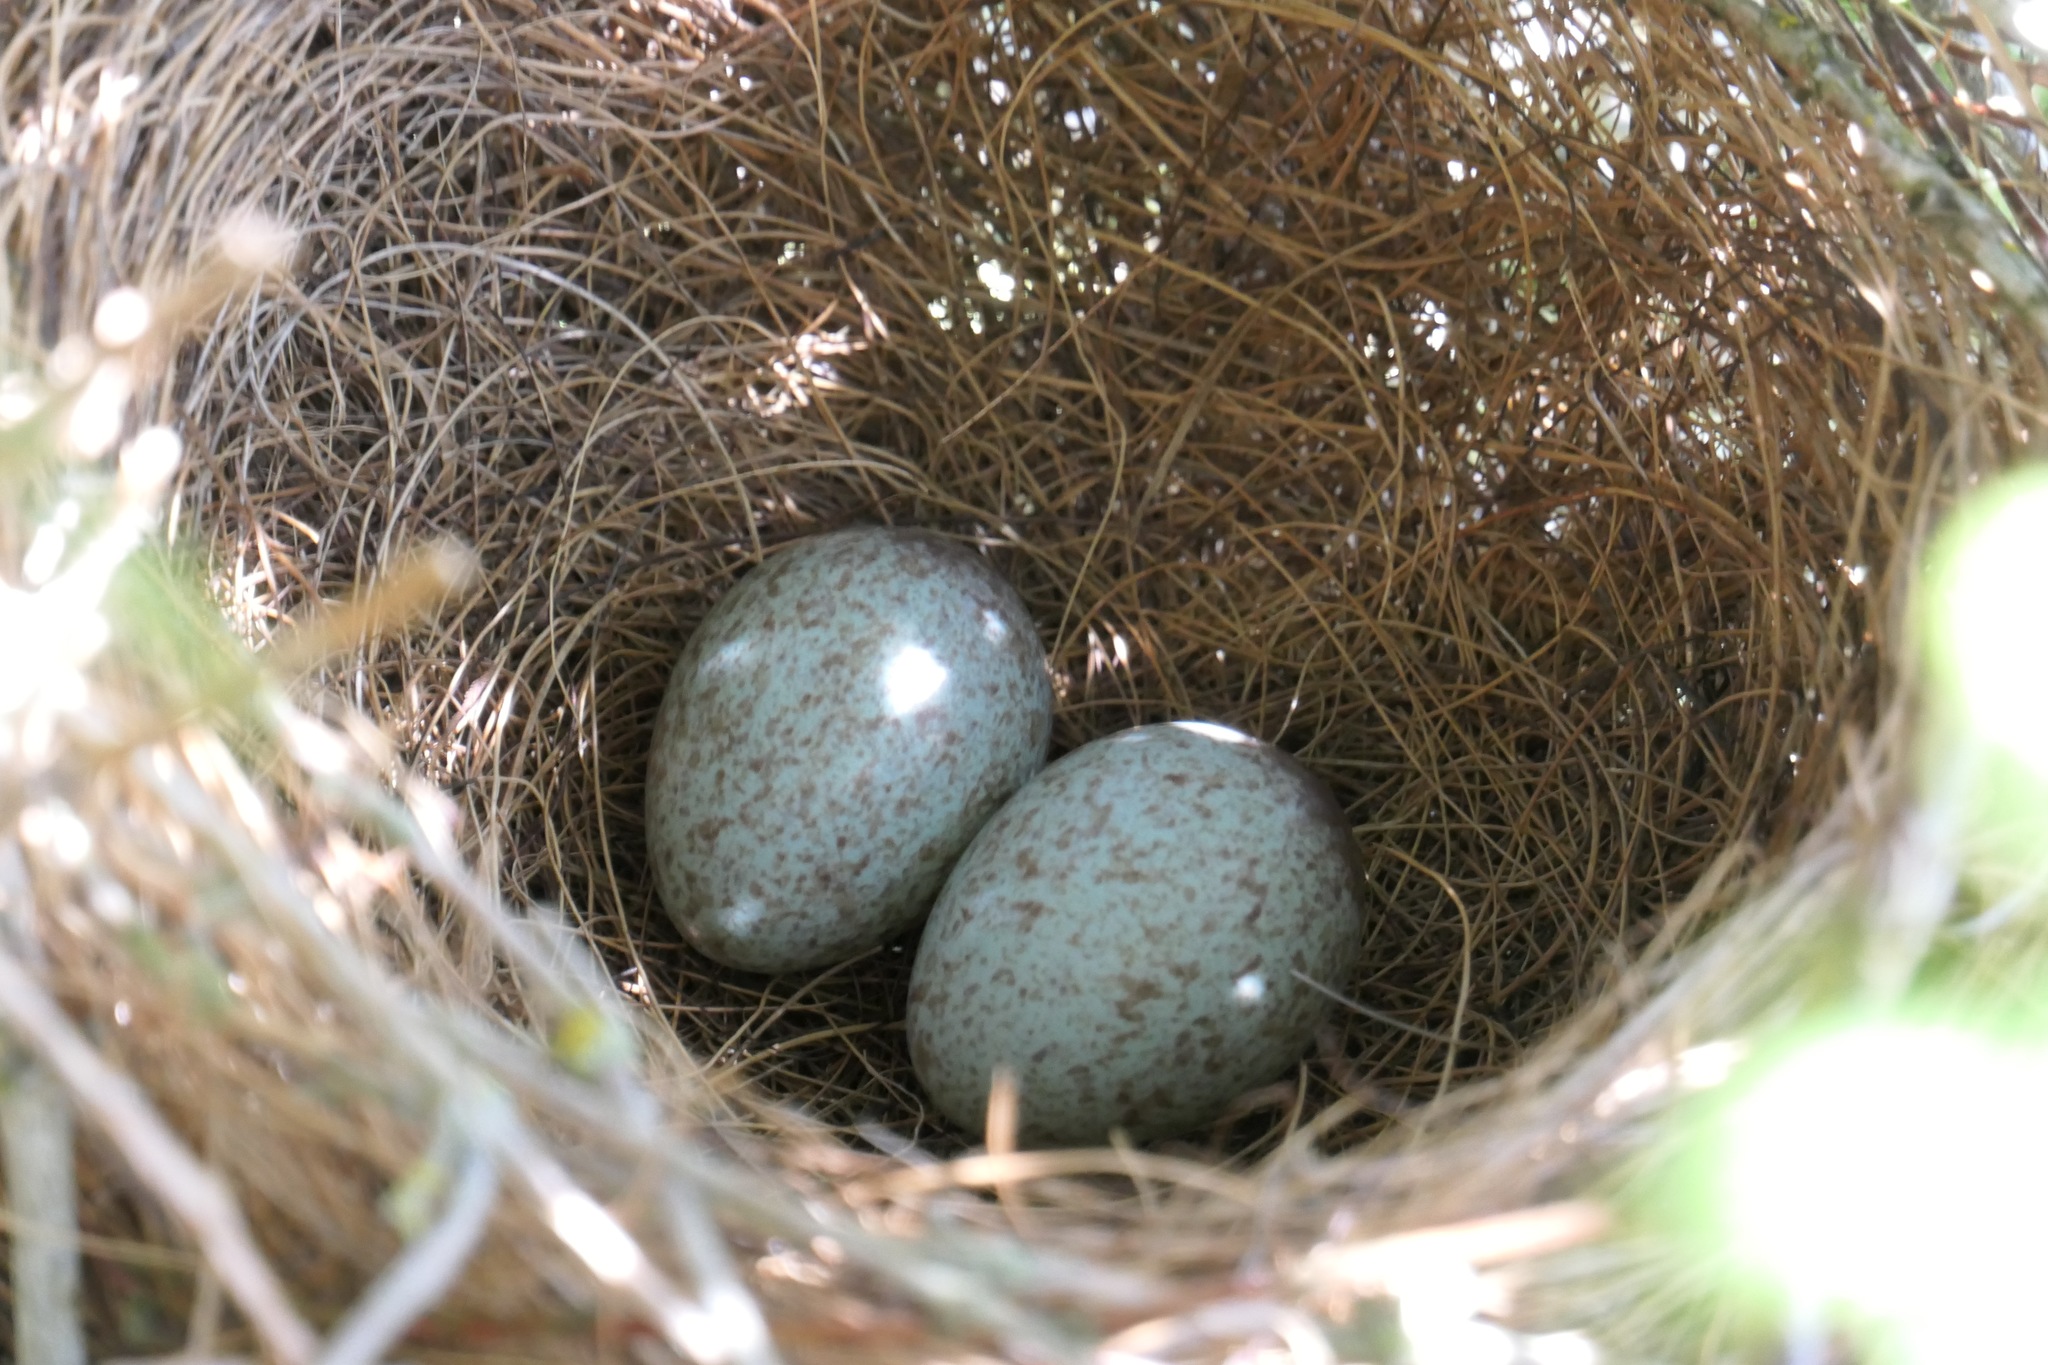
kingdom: Animalia
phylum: Chordata
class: Aves
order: Passeriformes
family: Corvidae
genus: Aphelocoma
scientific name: Aphelocoma californica
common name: California scrub-jay
